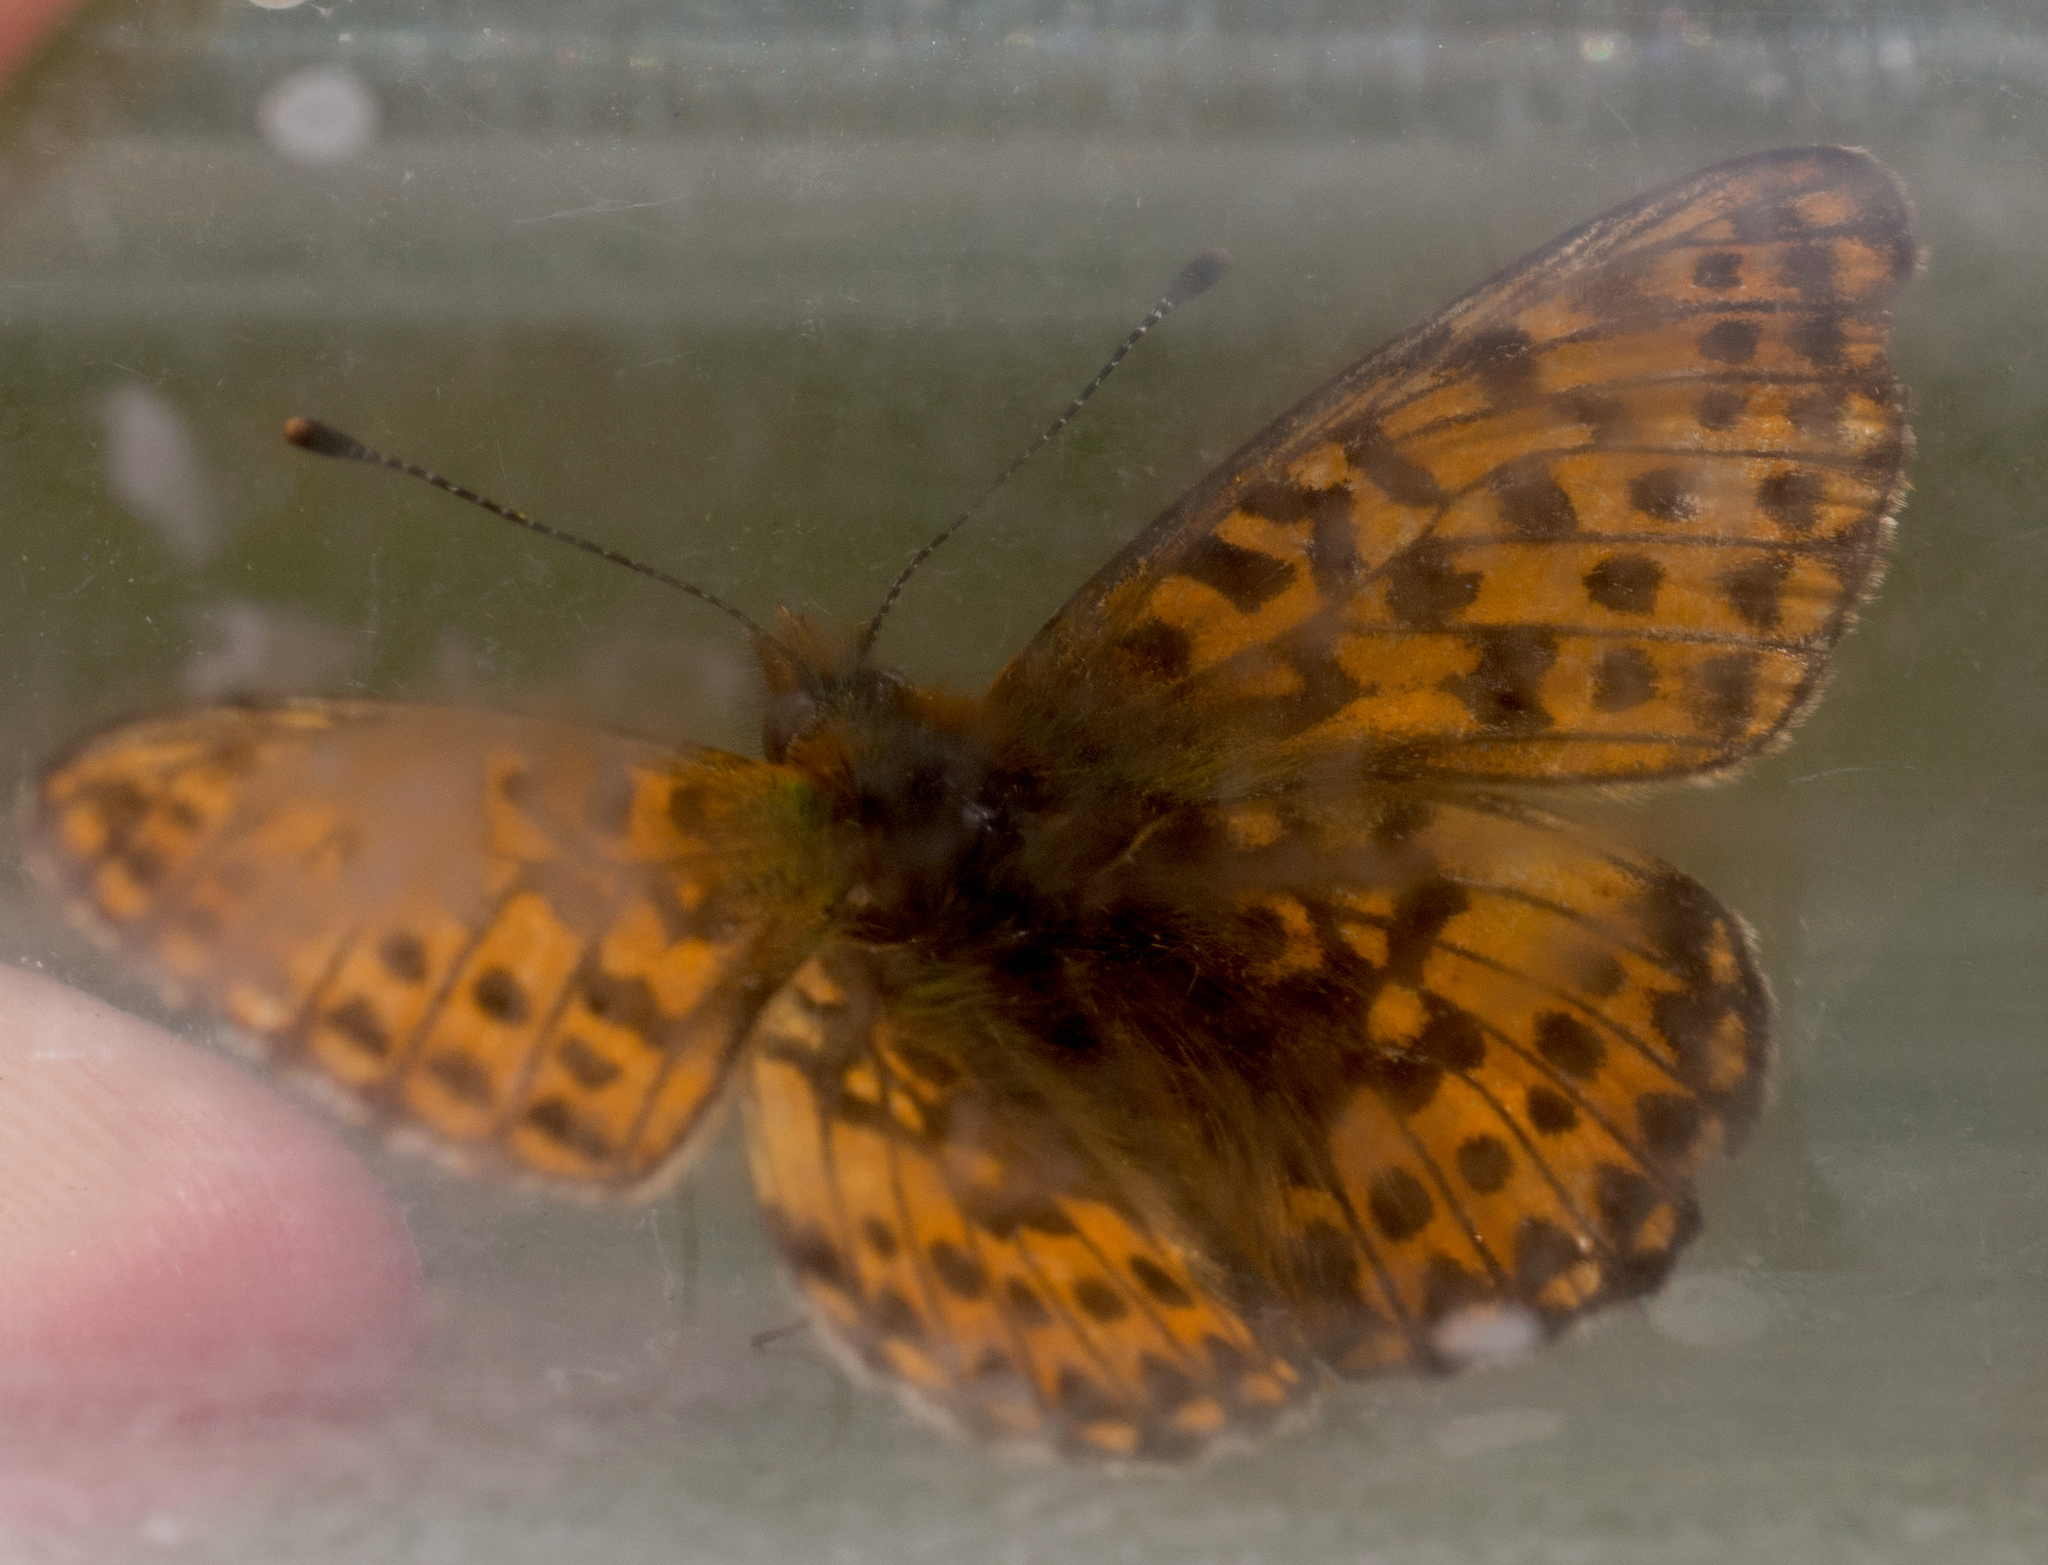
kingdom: Animalia
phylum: Arthropoda
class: Insecta
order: Lepidoptera
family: Nymphalidae
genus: Clossiana
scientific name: Clossiana euphrosyne
